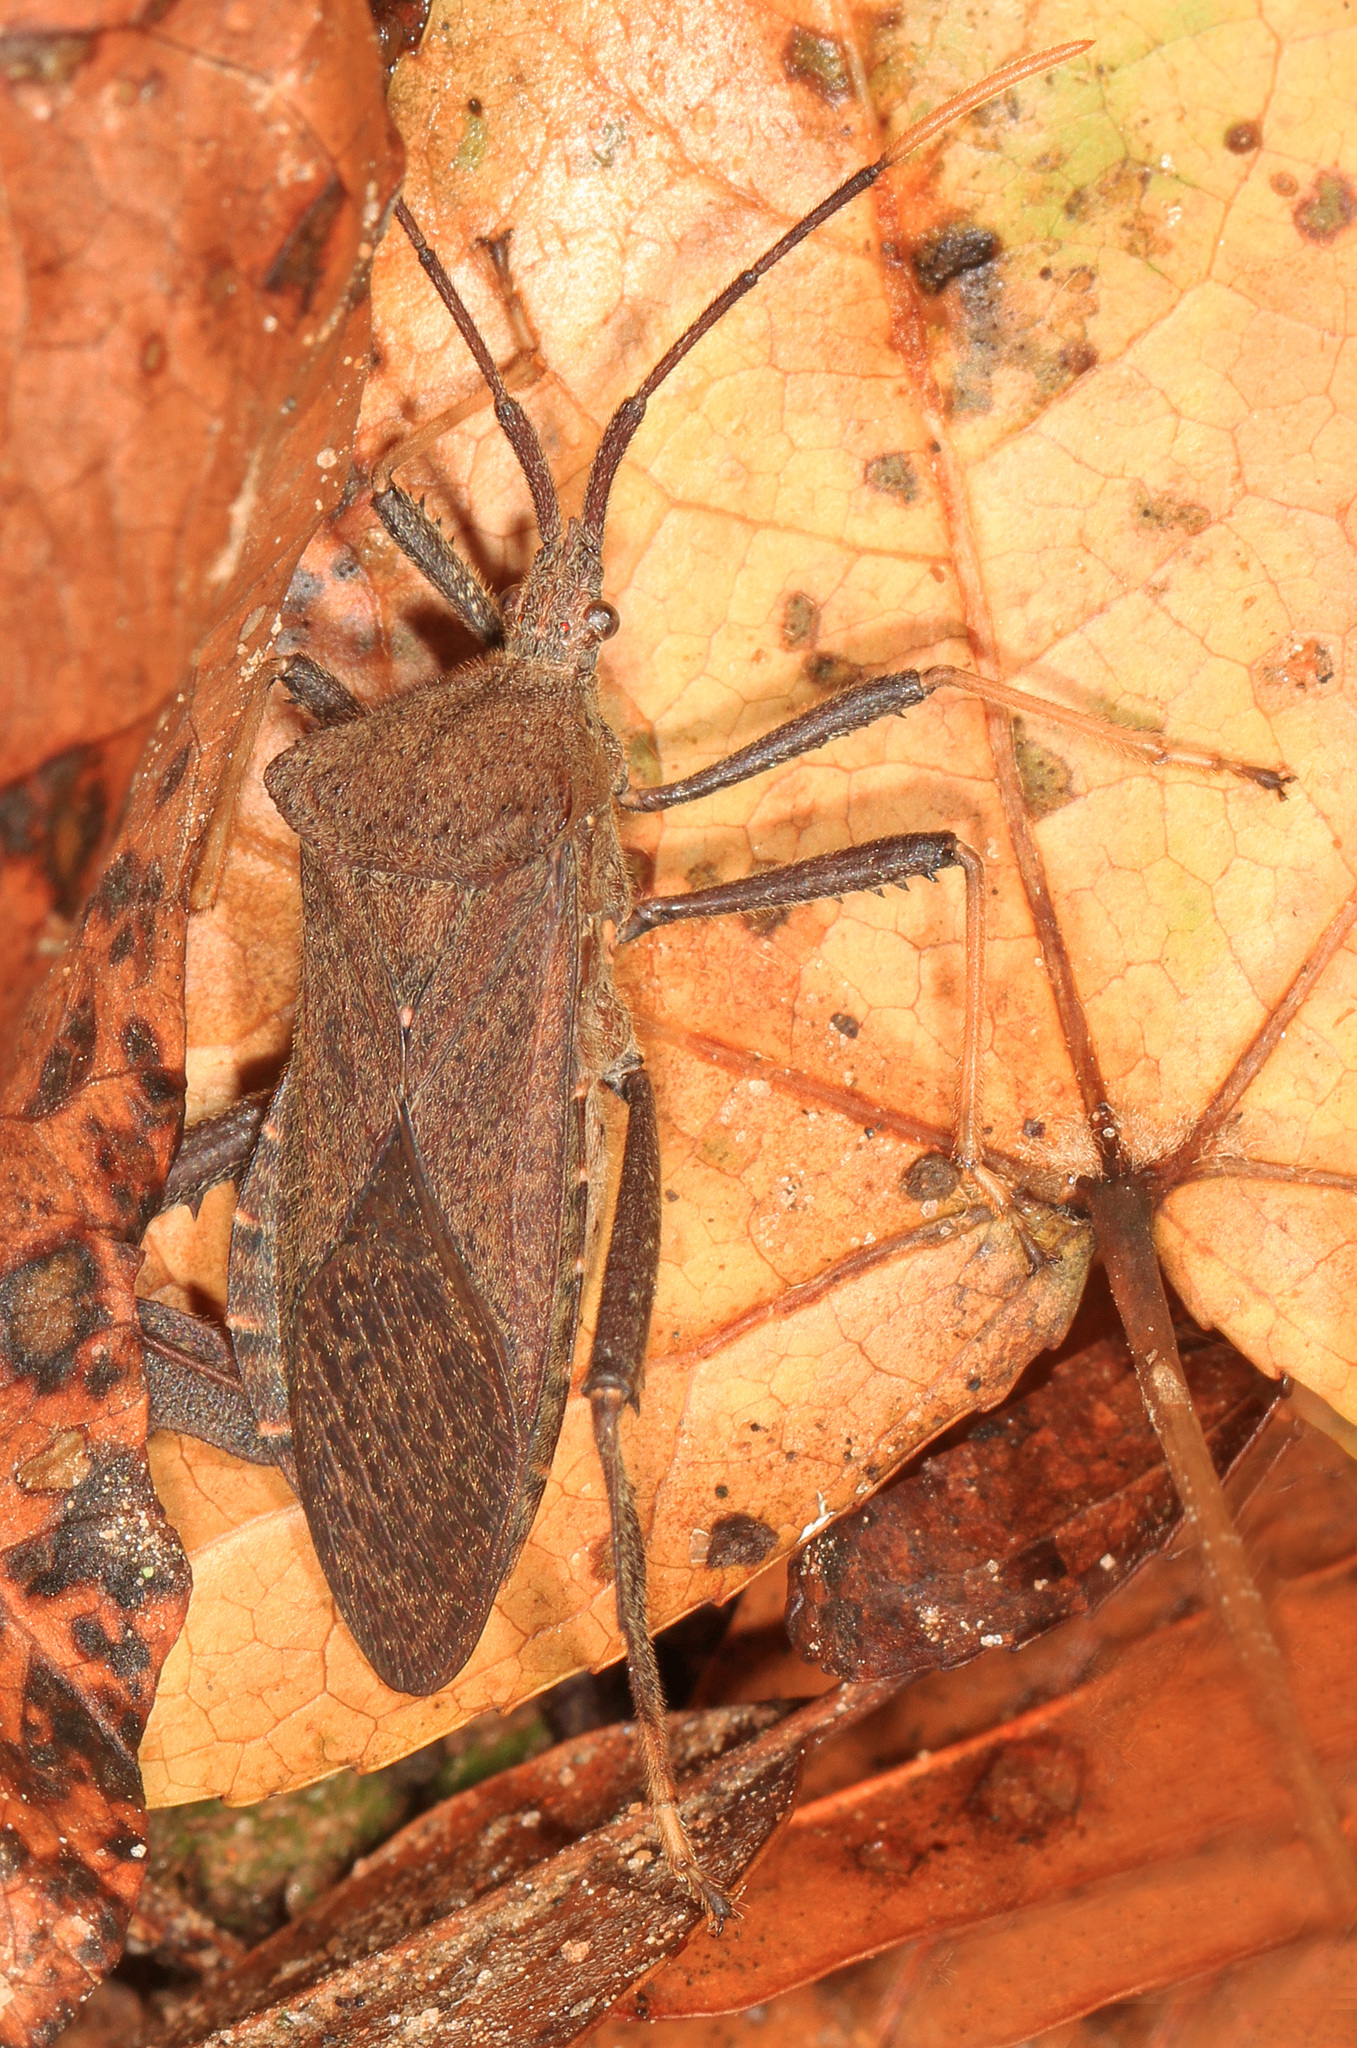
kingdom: Animalia
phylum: Arthropoda
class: Insecta
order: Hemiptera
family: Coreidae
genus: Acanthocephala
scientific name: Acanthocephala terminalis
